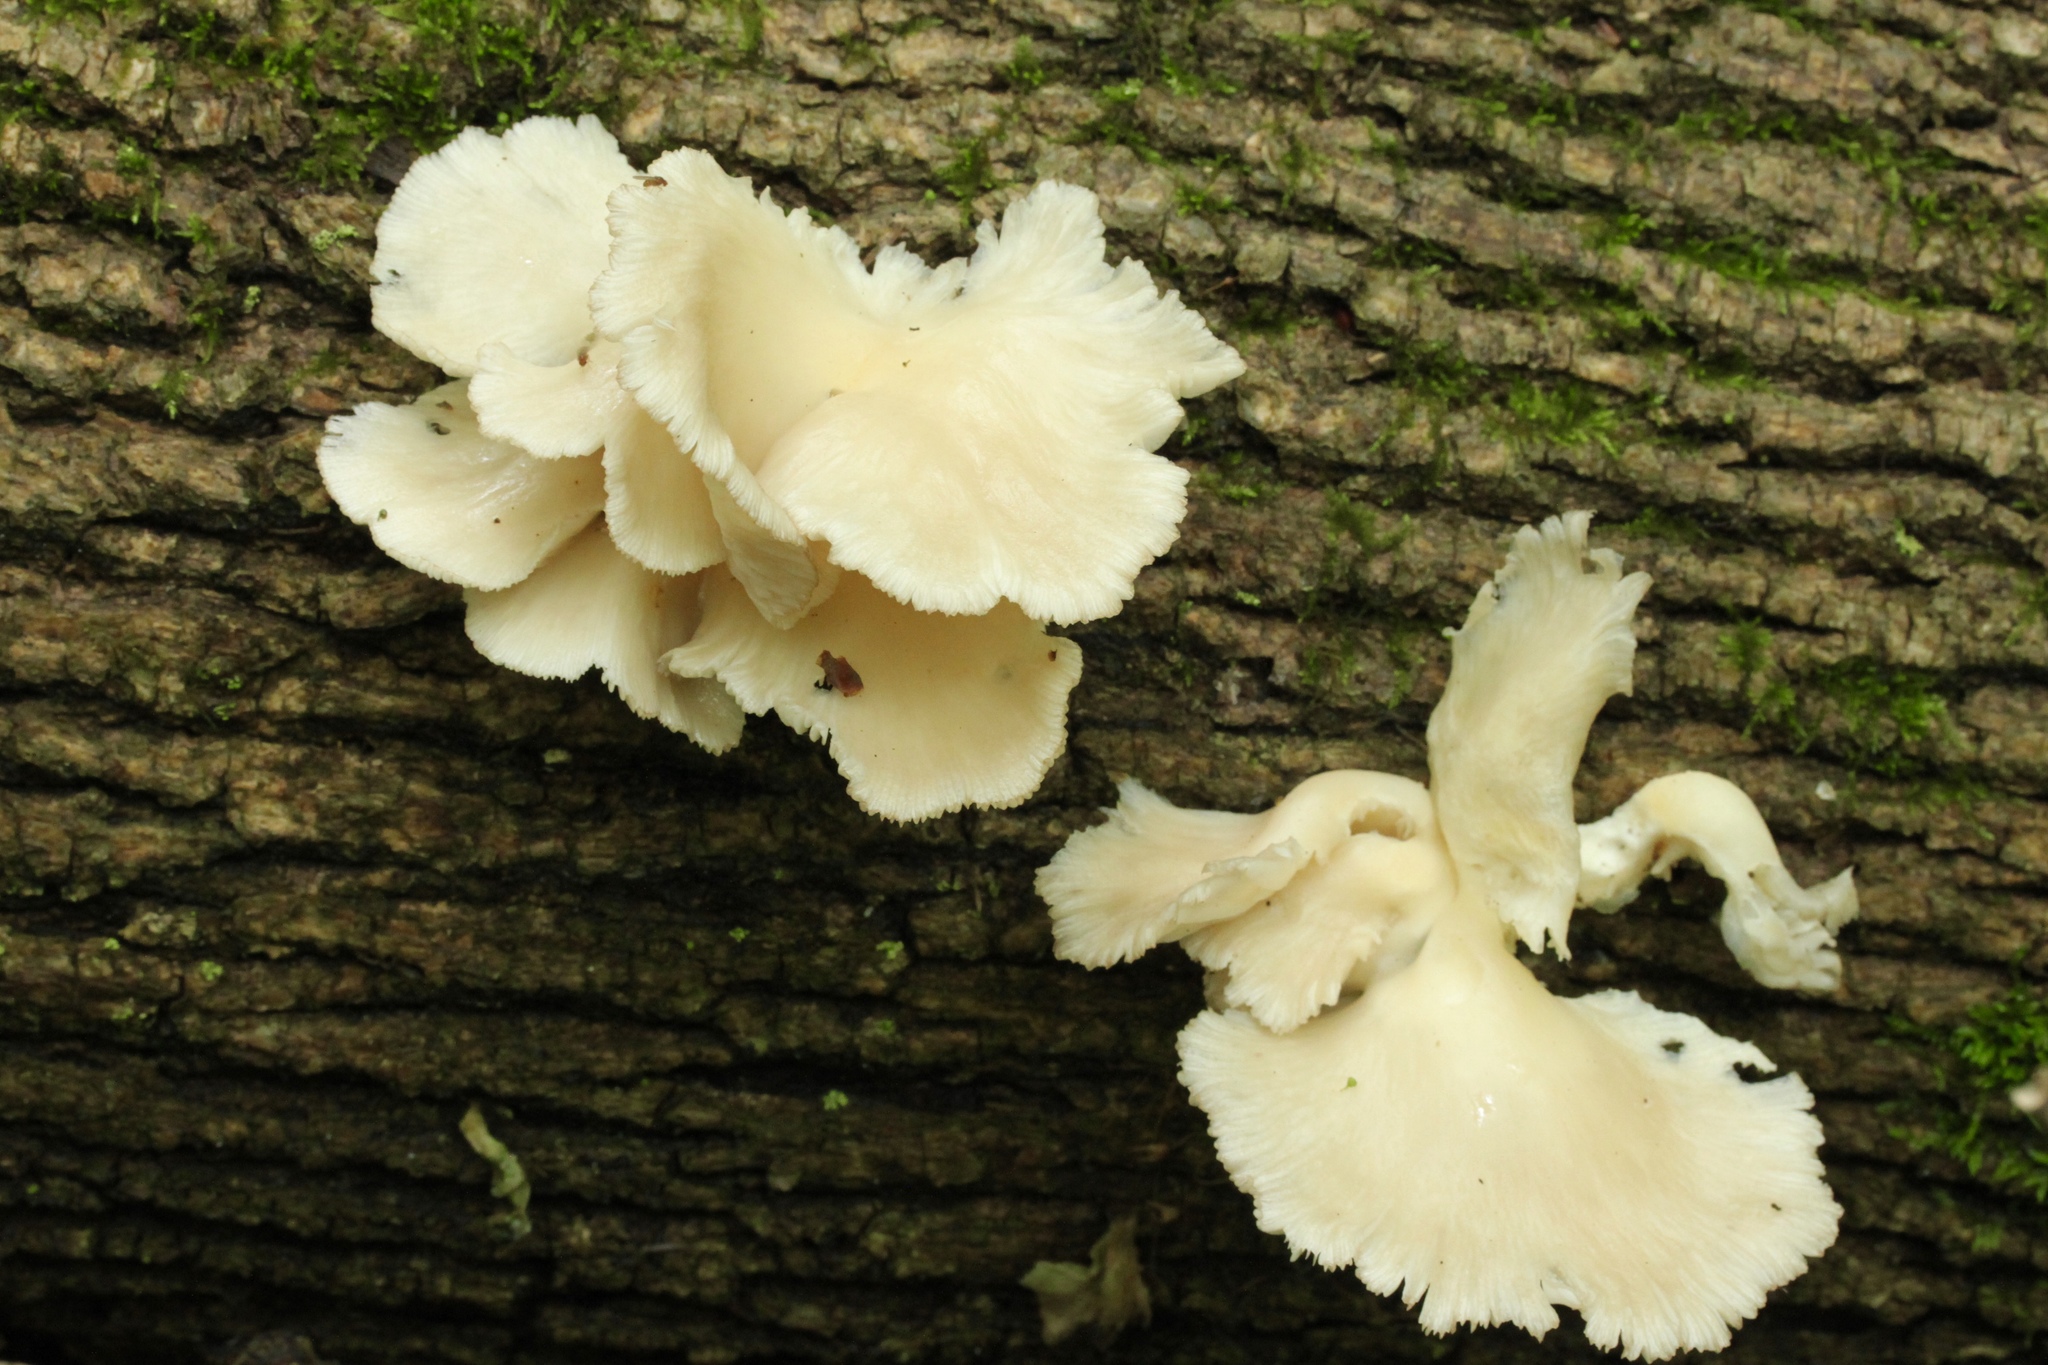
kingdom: Fungi
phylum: Basidiomycota
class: Agaricomycetes
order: Agaricales
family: Pleurotaceae
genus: Pleurotus
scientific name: Pleurotus pulmonarius
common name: Pale oyster
